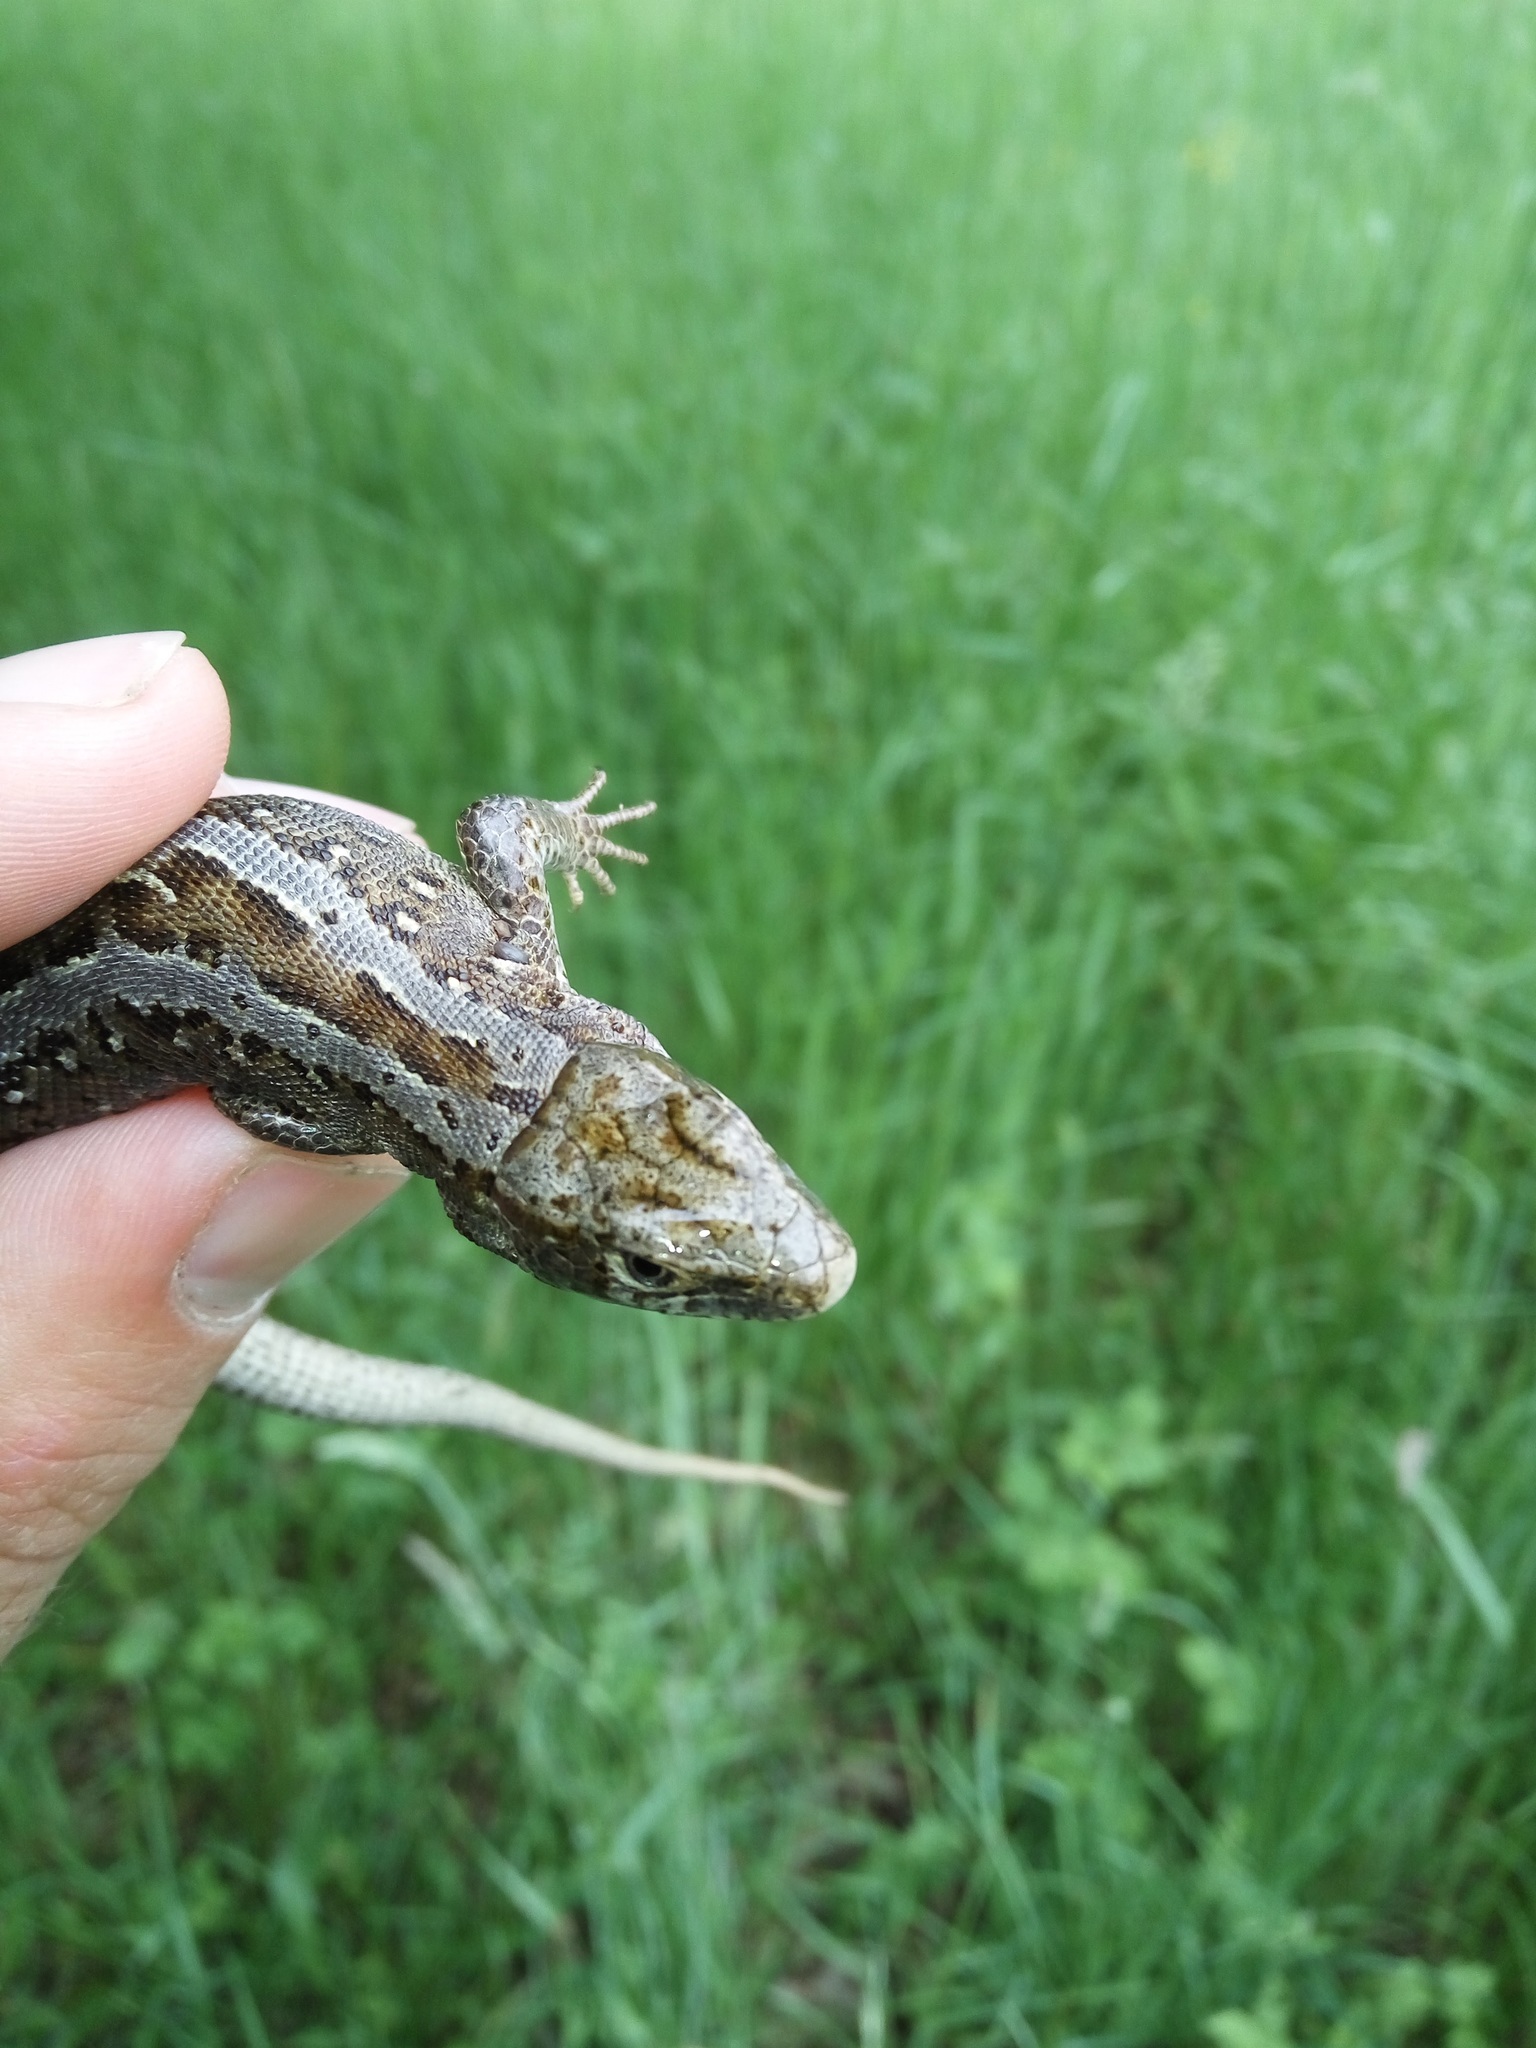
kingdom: Animalia
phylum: Chordata
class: Squamata
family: Lacertidae
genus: Lacerta
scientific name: Lacerta agilis
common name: Sand lizard
